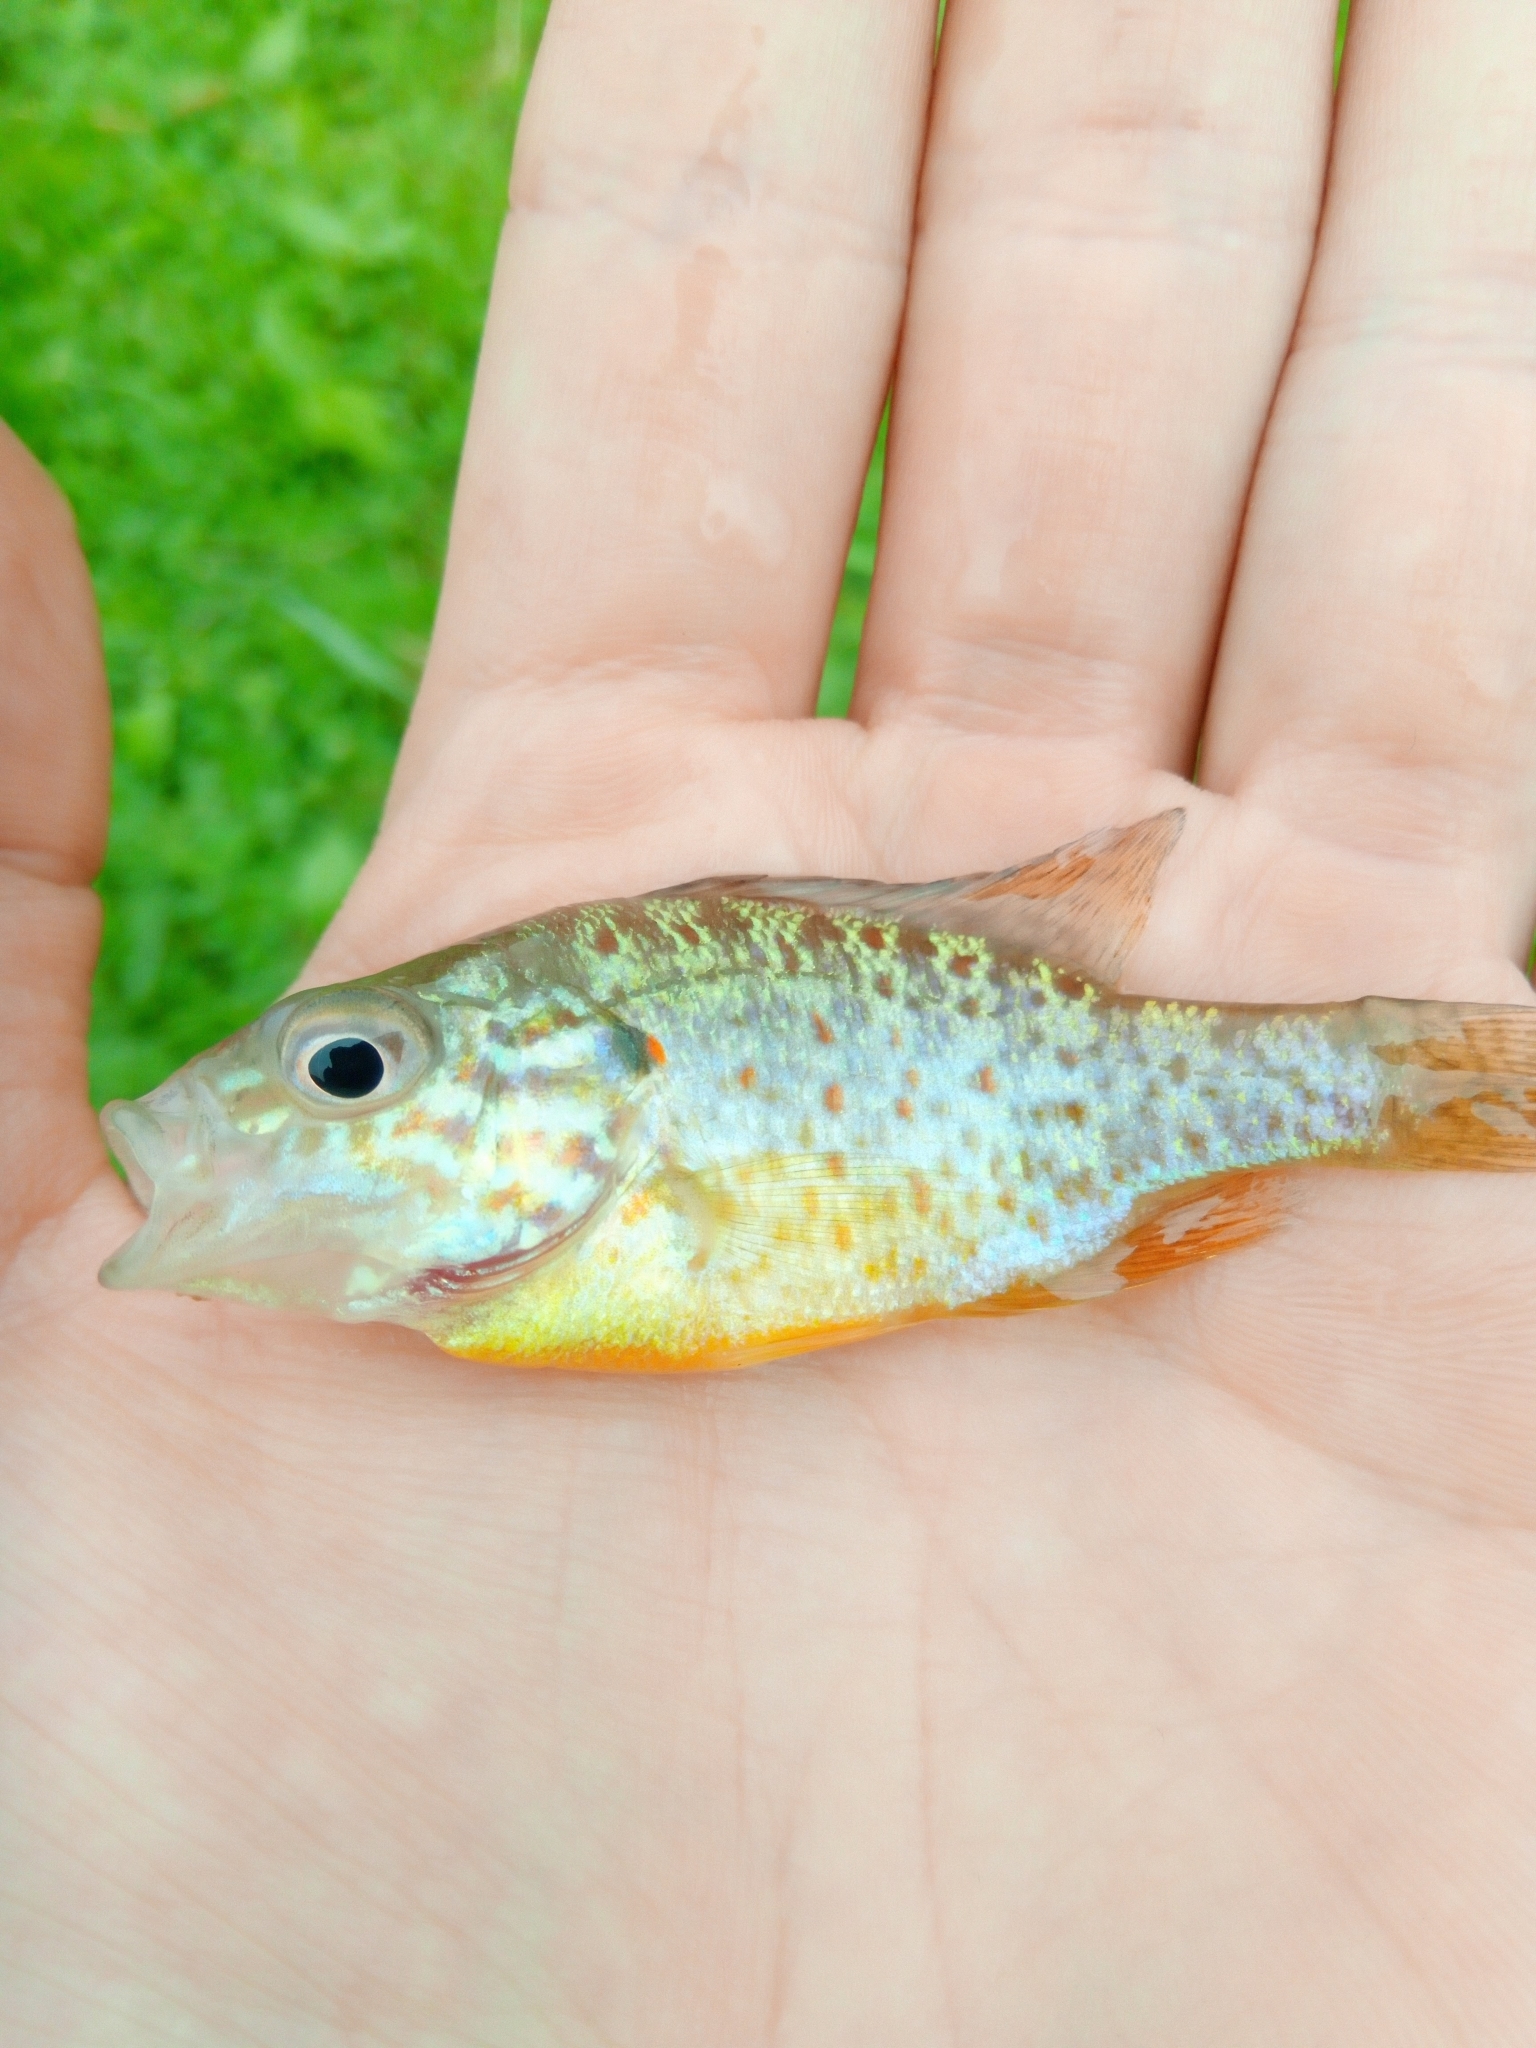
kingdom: Animalia
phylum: Chordata
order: Perciformes
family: Centrarchidae
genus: Lepomis
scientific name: Lepomis gibbosus
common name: Pumpkinseed
